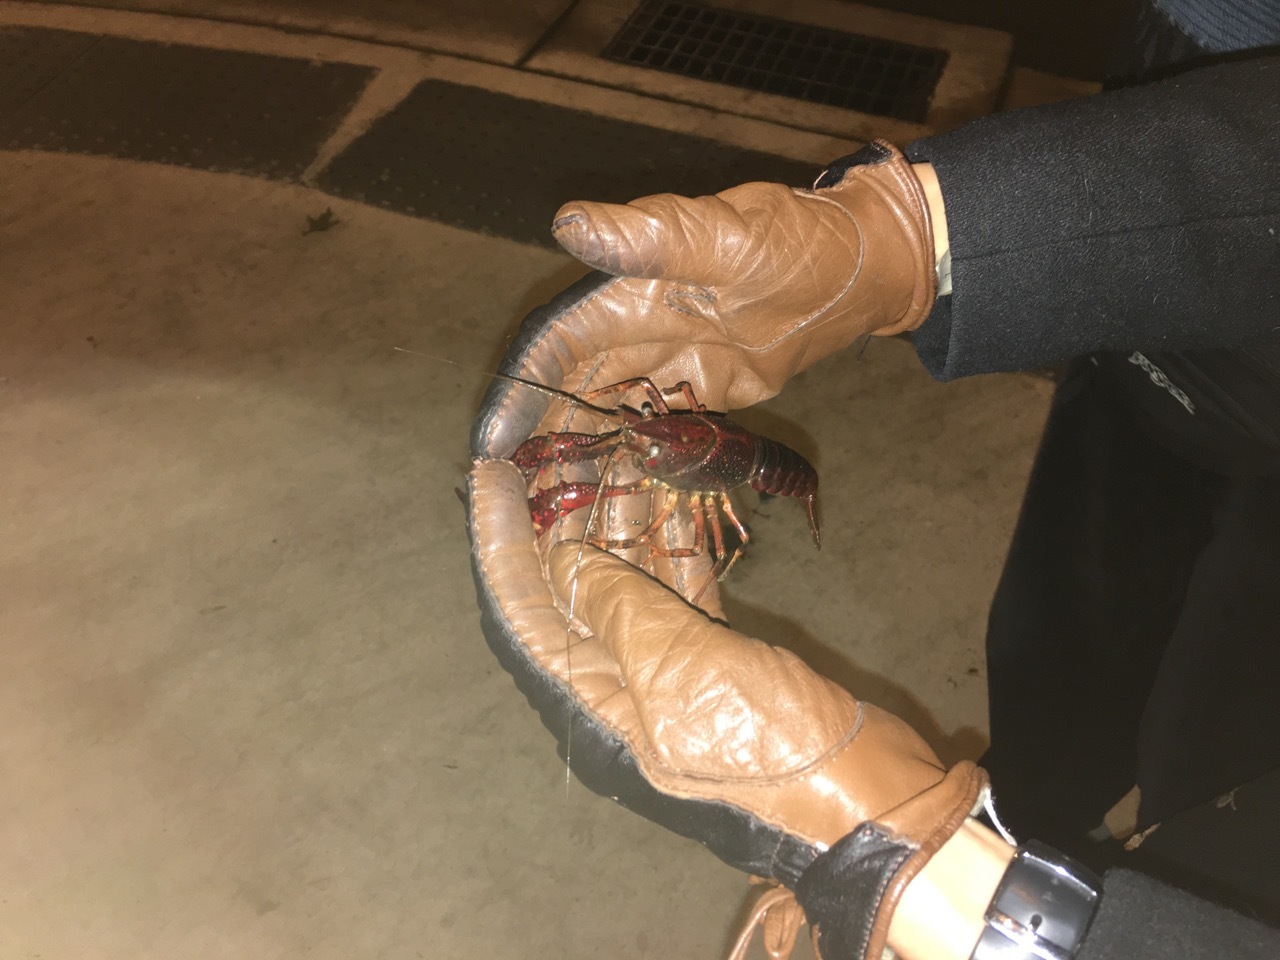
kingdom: Animalia
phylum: Arthropoda
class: Malacostraca
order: Decapoda
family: Cambaridae
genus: Procambarus
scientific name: Procambarus clarkii
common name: Red swamp crayfish
